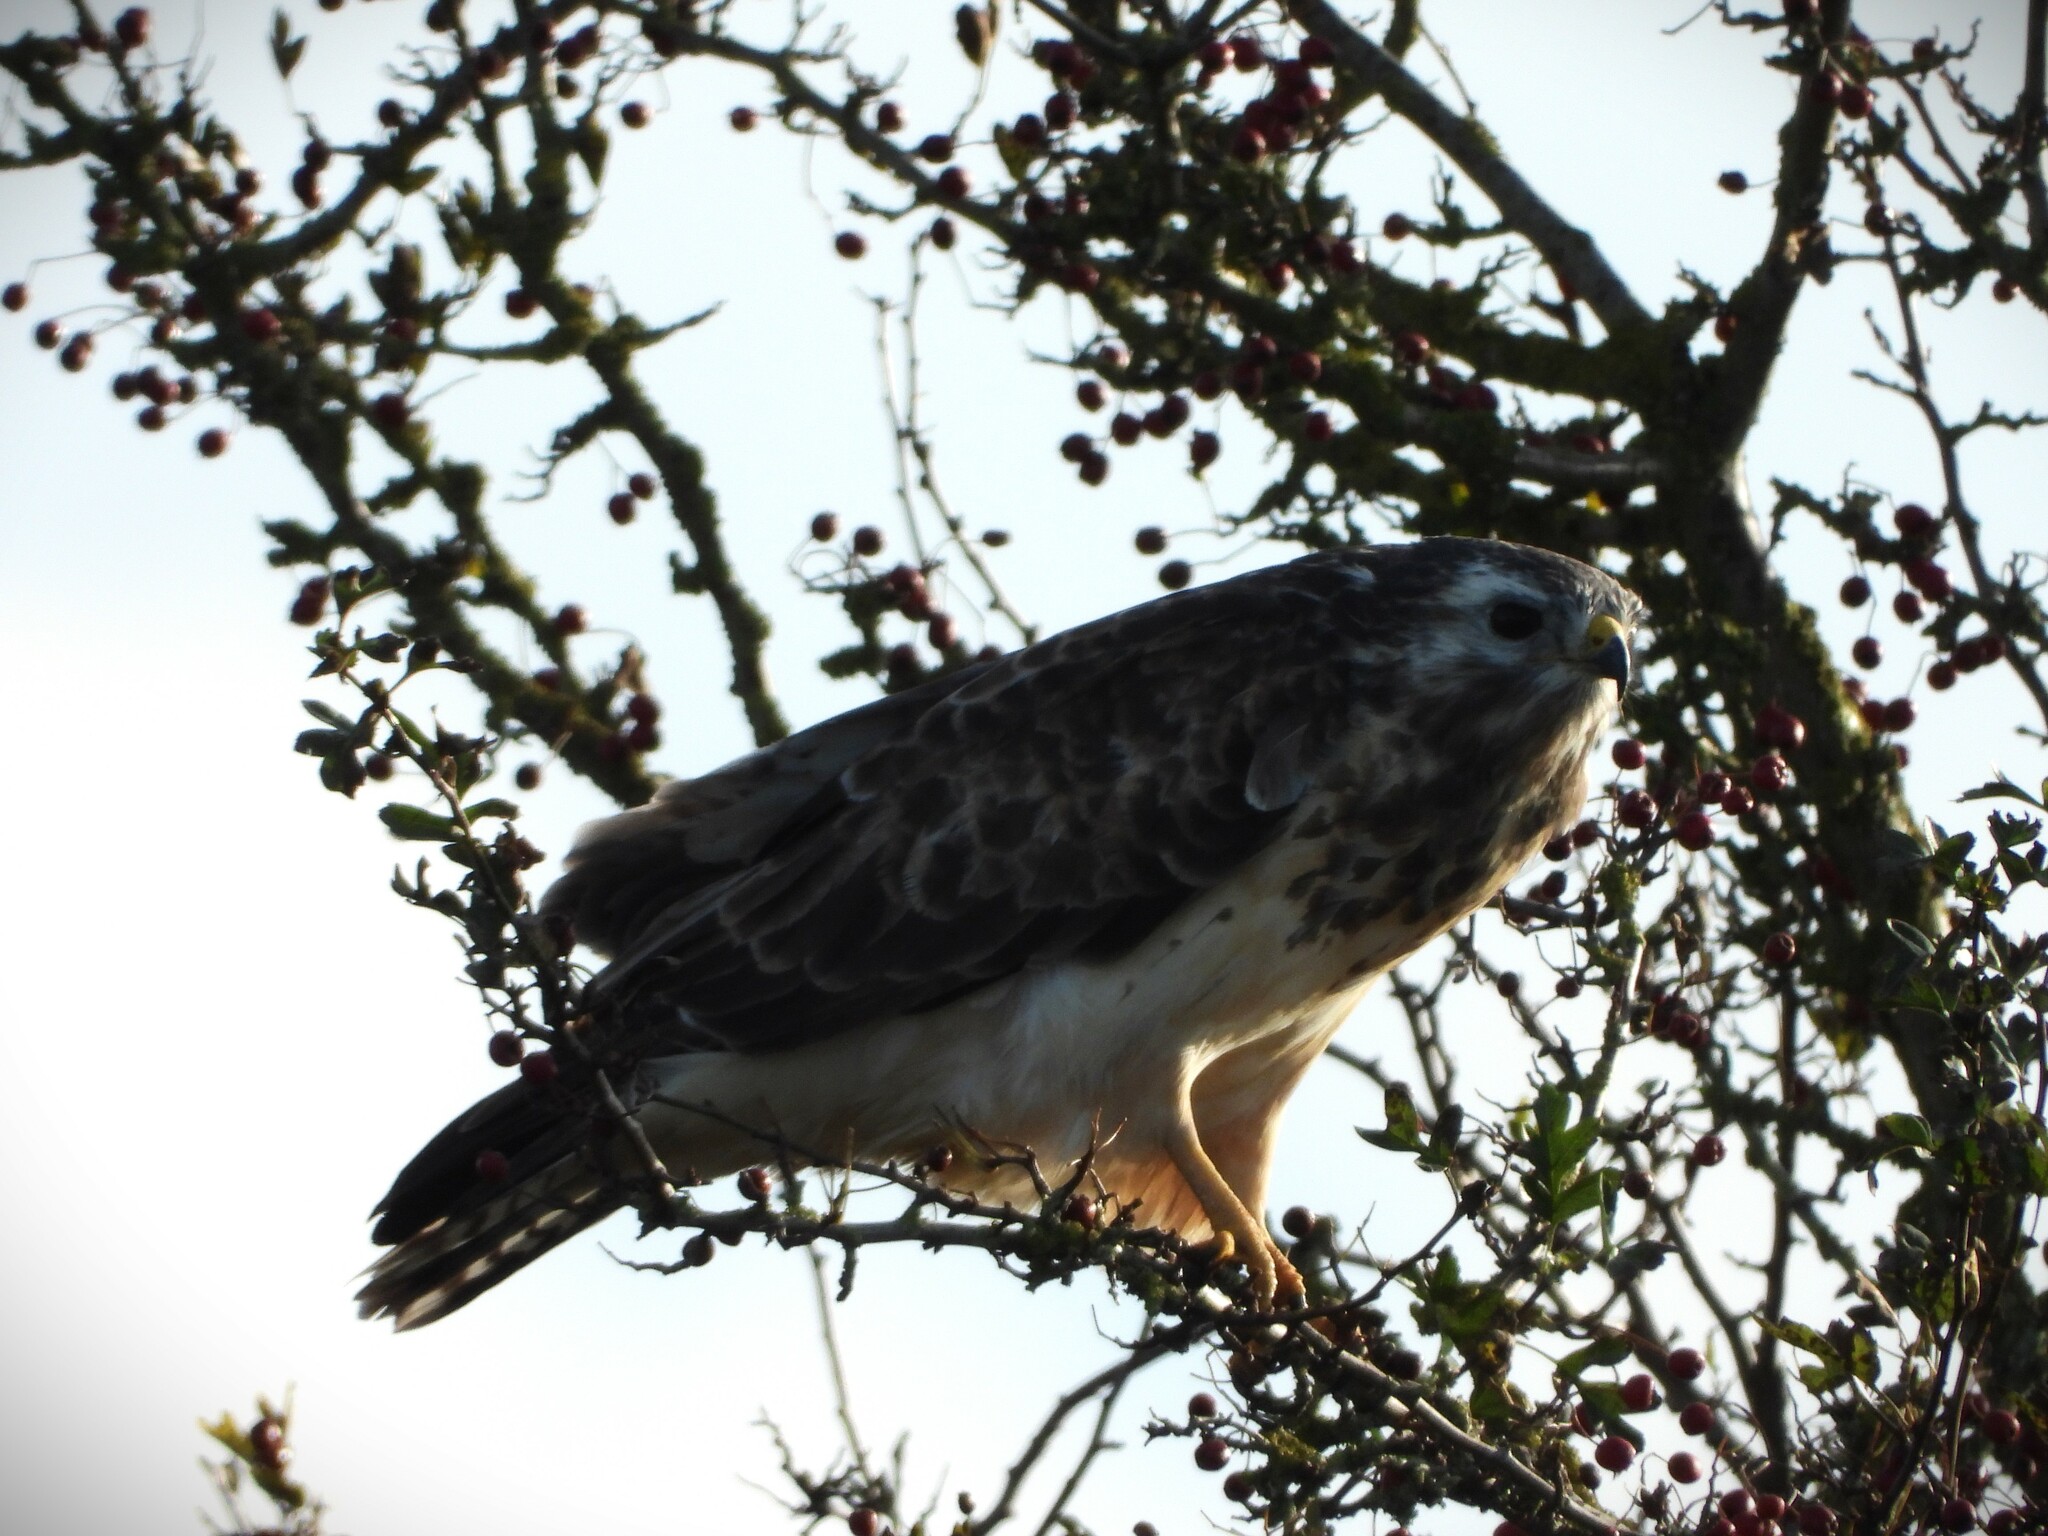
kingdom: Animalia
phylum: Chordata
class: Aves
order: Accipitriformes
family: Accipitridae
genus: Buteo
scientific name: Buteo buteo
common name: Common buzzard
